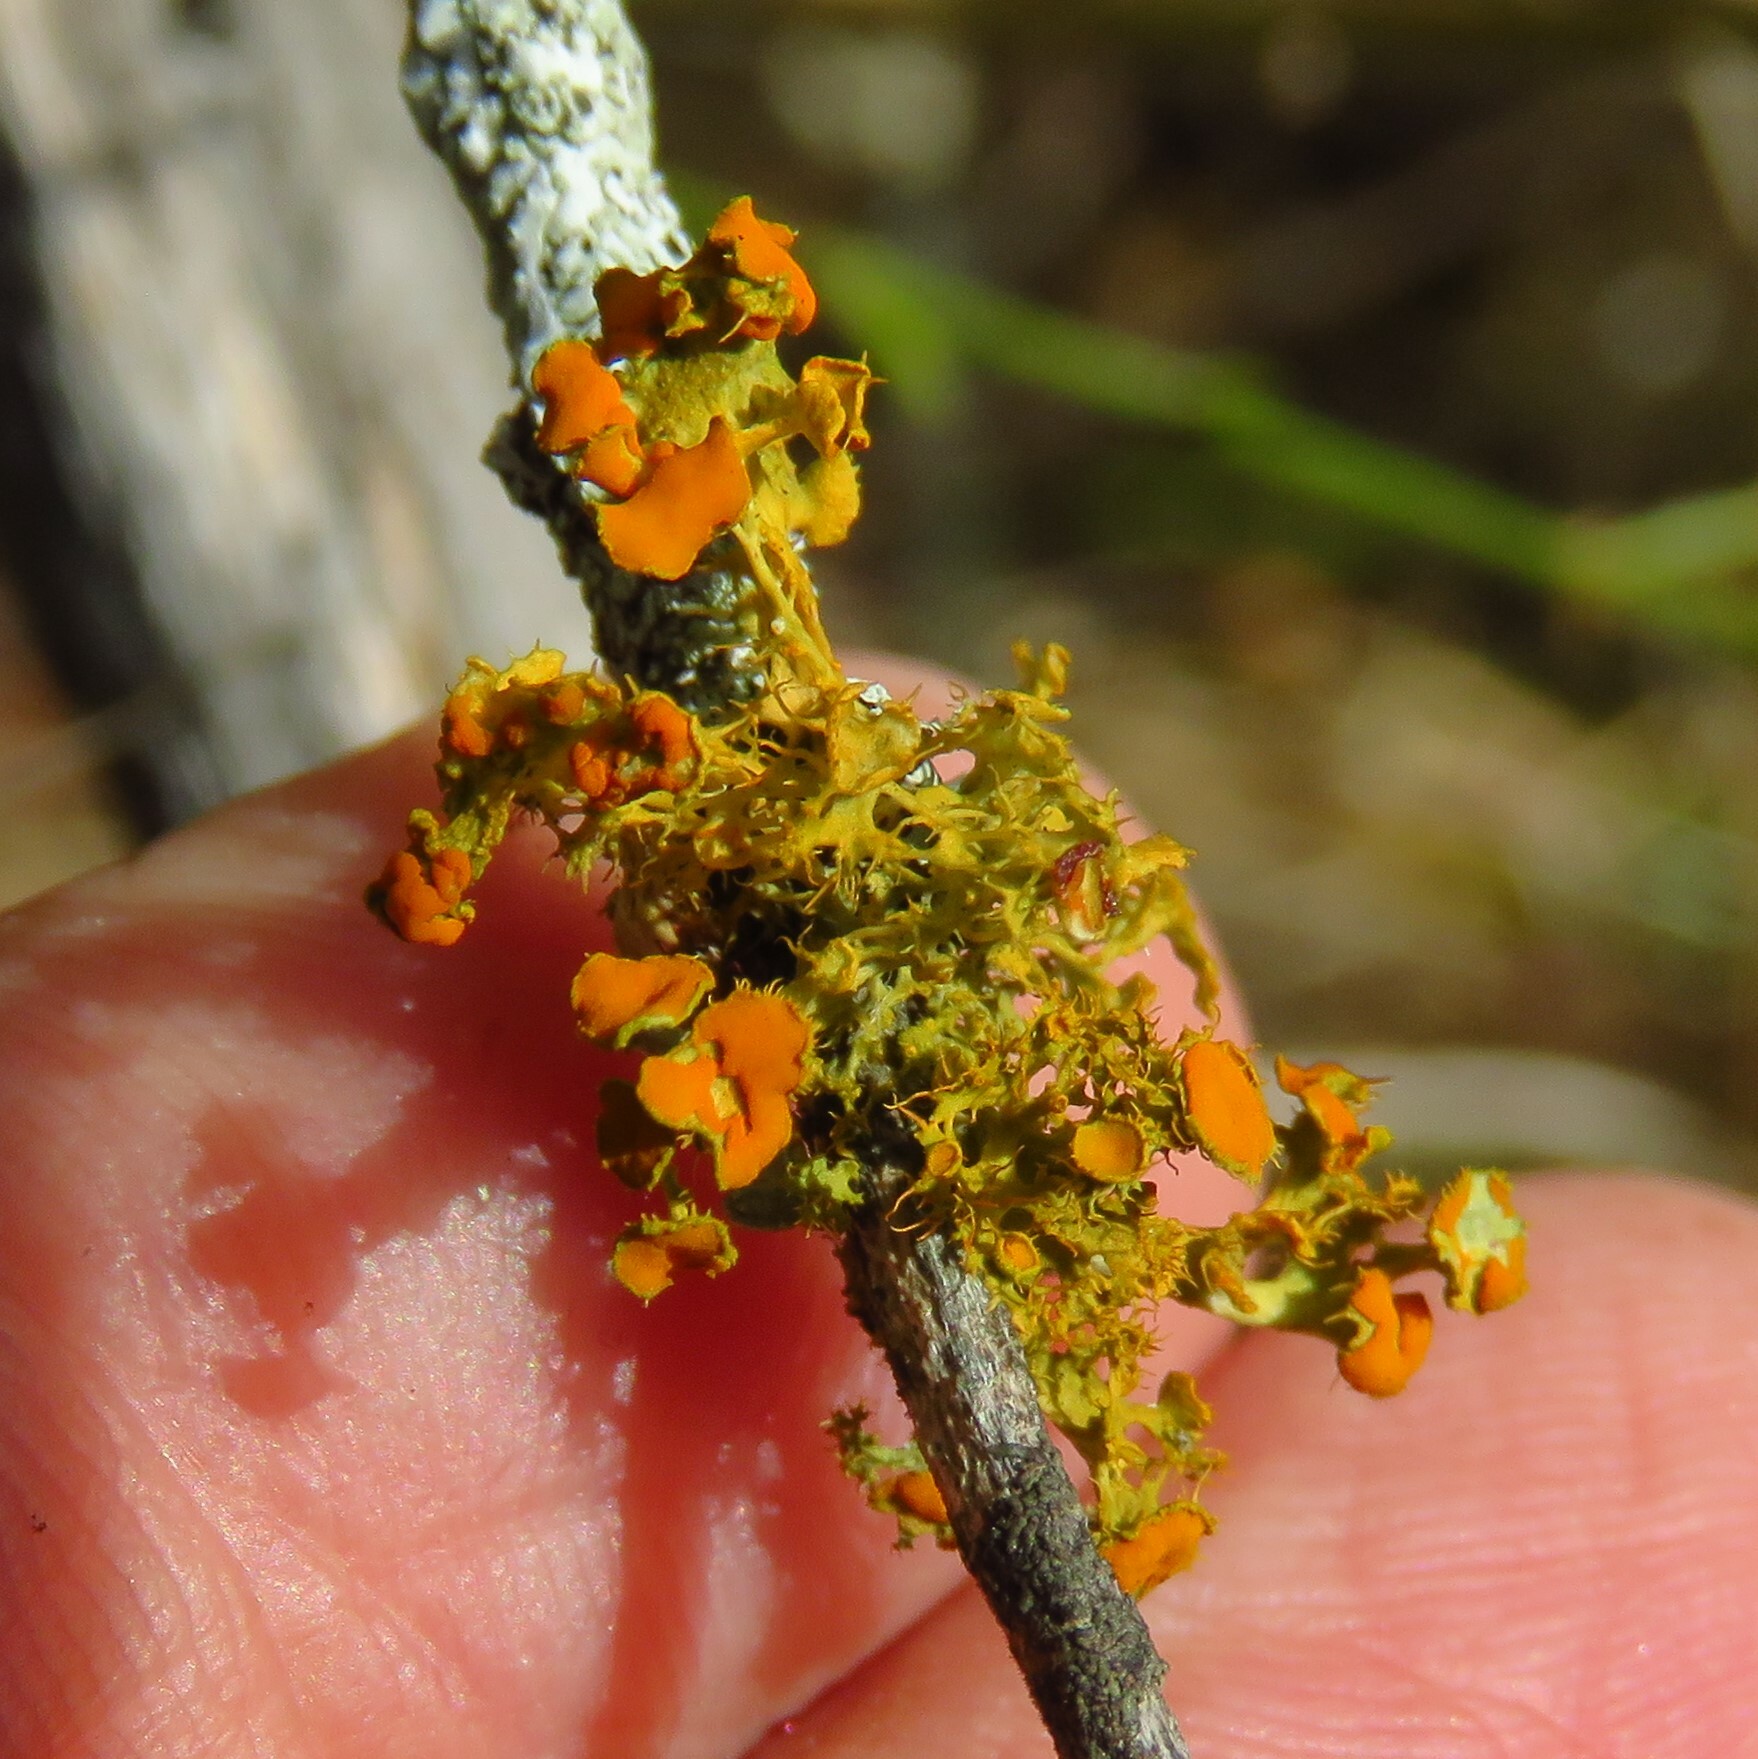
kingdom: Fungi
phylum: Ascomycota
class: Lecanoromycetes
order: Teloschistales
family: Teloschistaceae
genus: Niorma
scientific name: Niorma chrysophthalma
